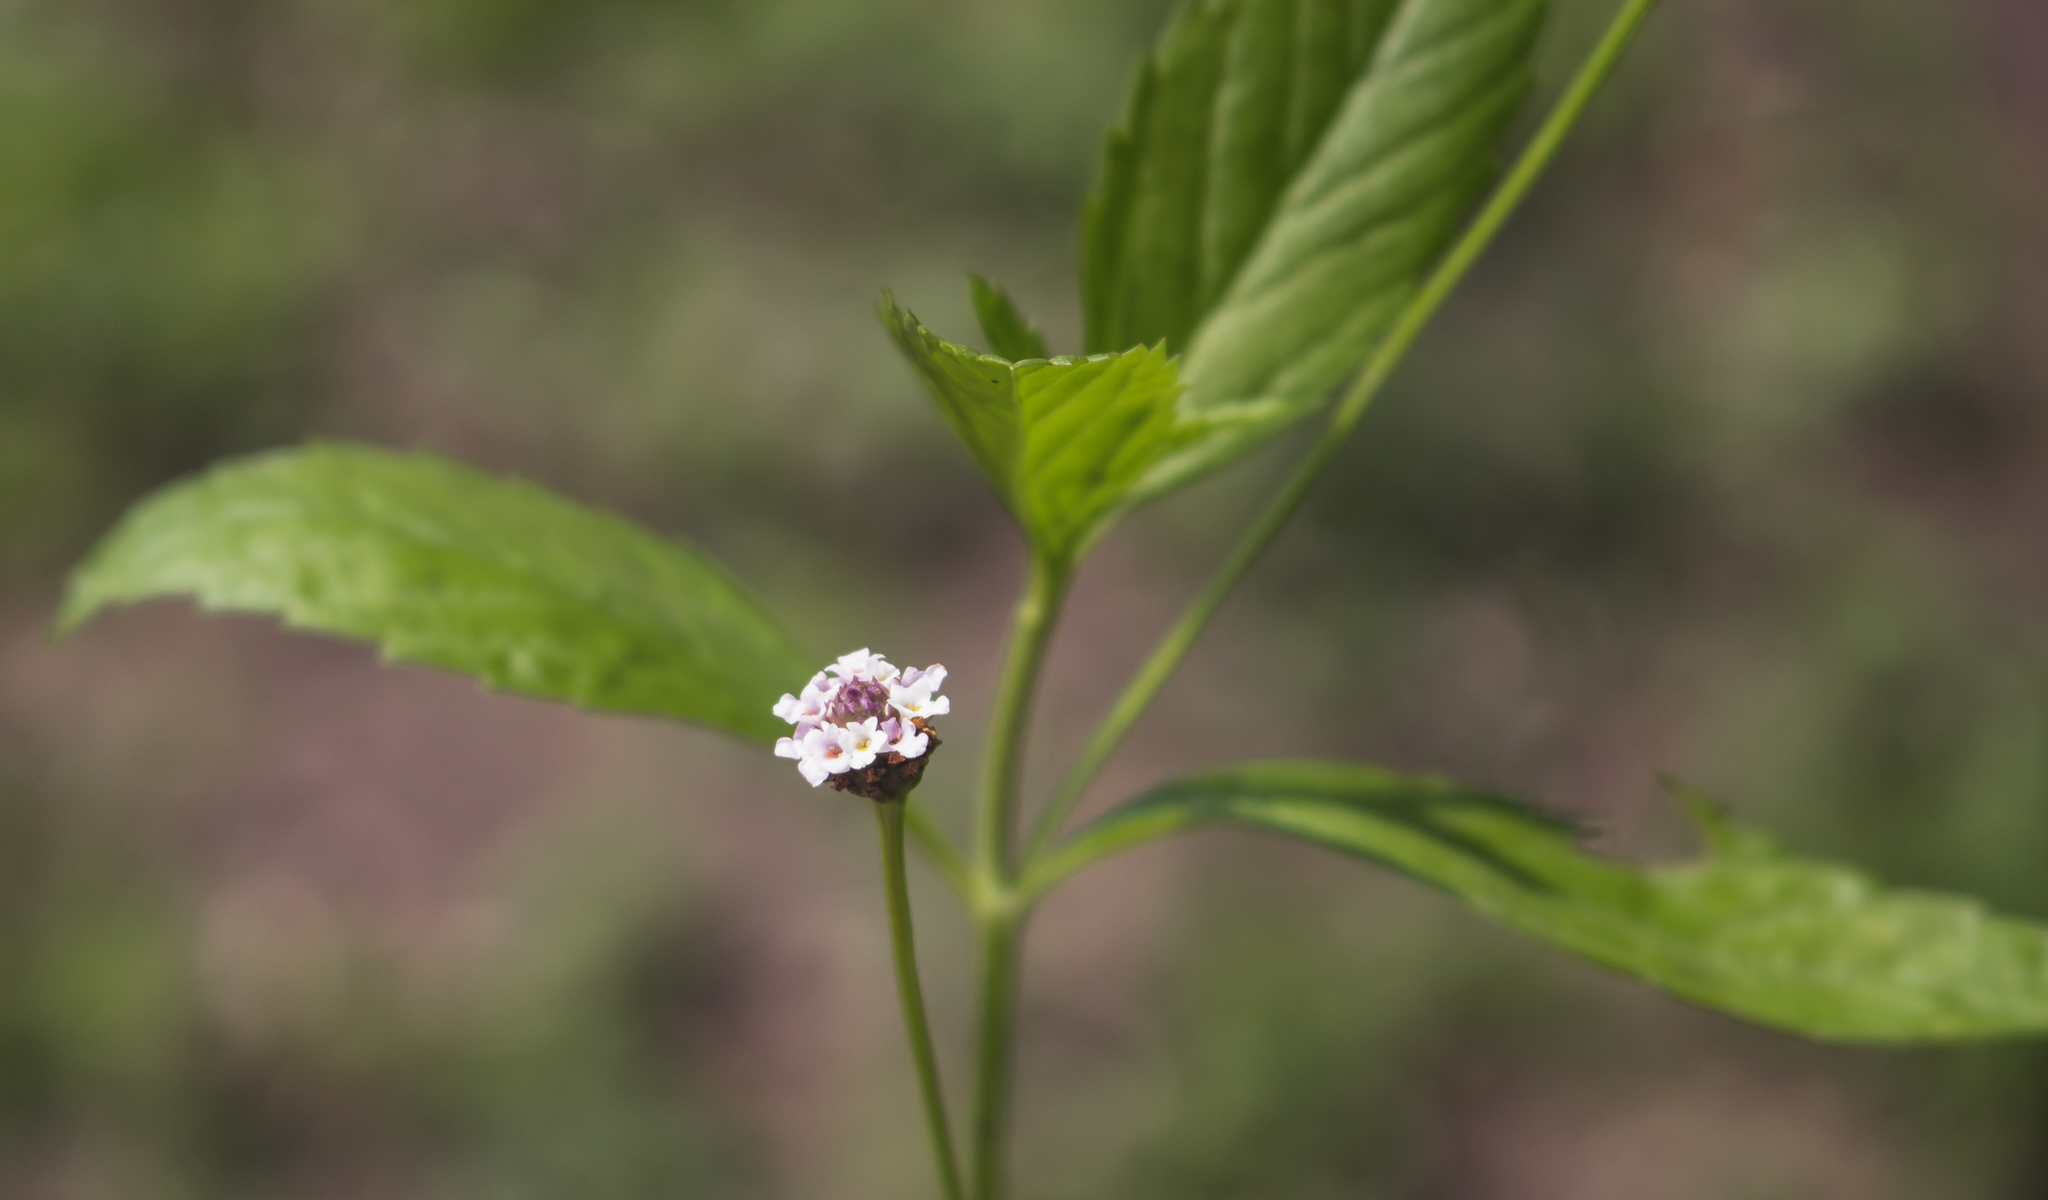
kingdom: Plantae
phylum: Tracheophyta
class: Magnoliopsida
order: Lamiales
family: Verbenaceae
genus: Phyla
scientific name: Phyla lanceolata
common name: Northern fogfruit
